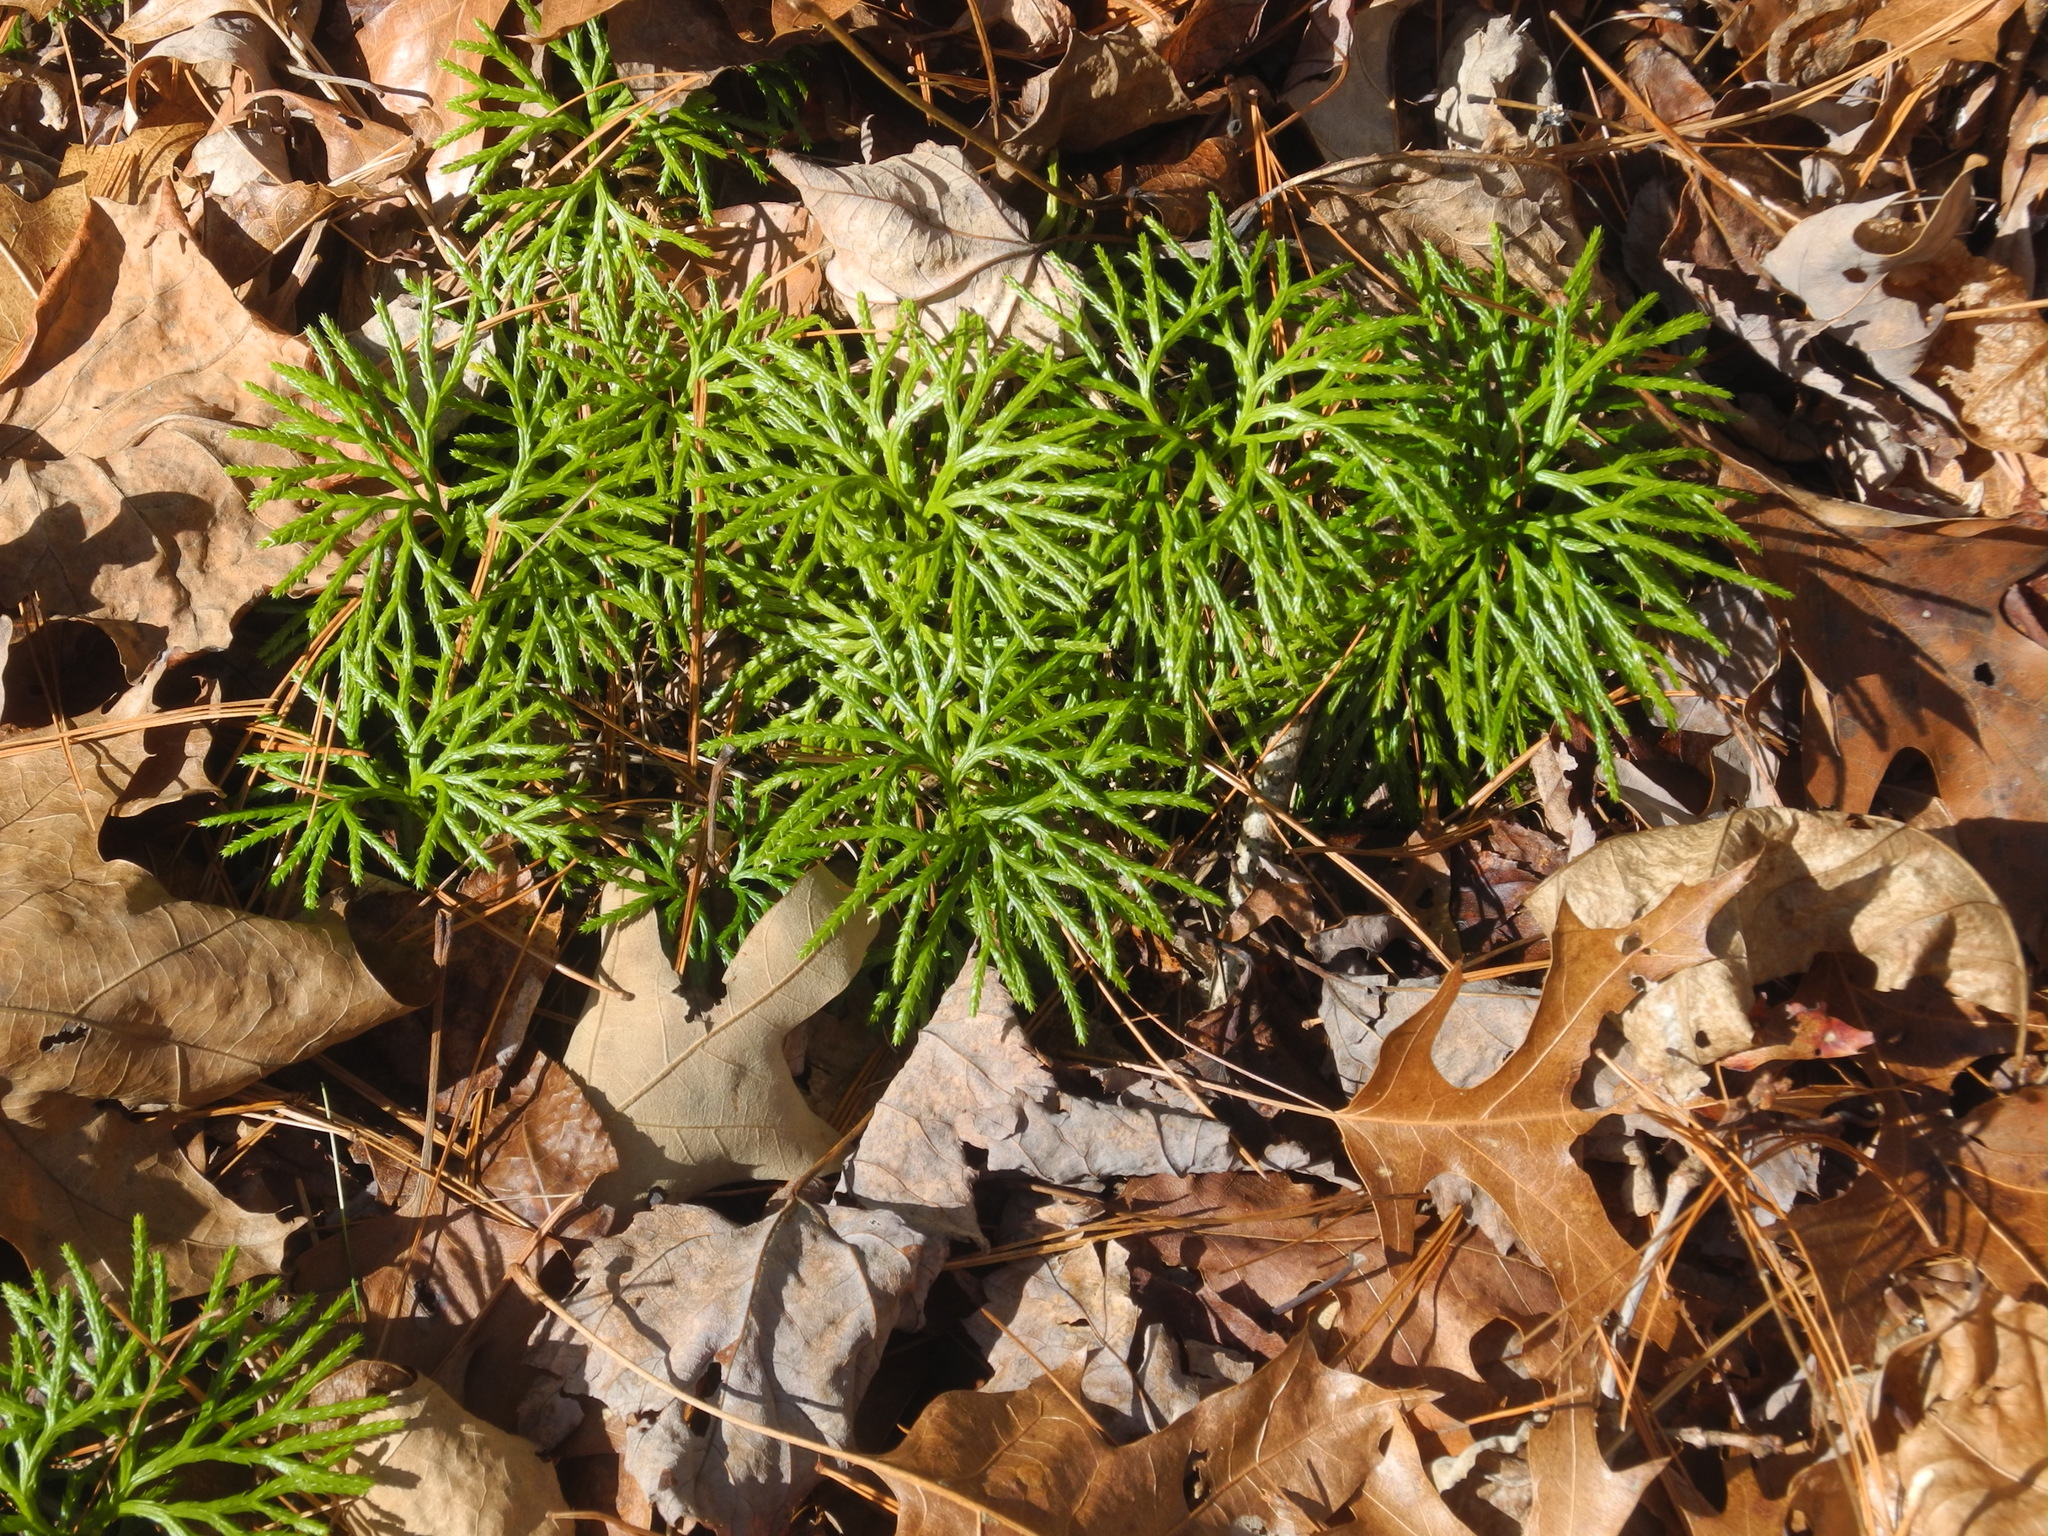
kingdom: Plantae
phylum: Tracheophyta
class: Lycopodiopsida
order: Lycopodiales
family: Lycopodiaceae
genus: Diphasiastrum
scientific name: Diphasiastrum digitatum
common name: Southern running-pine
